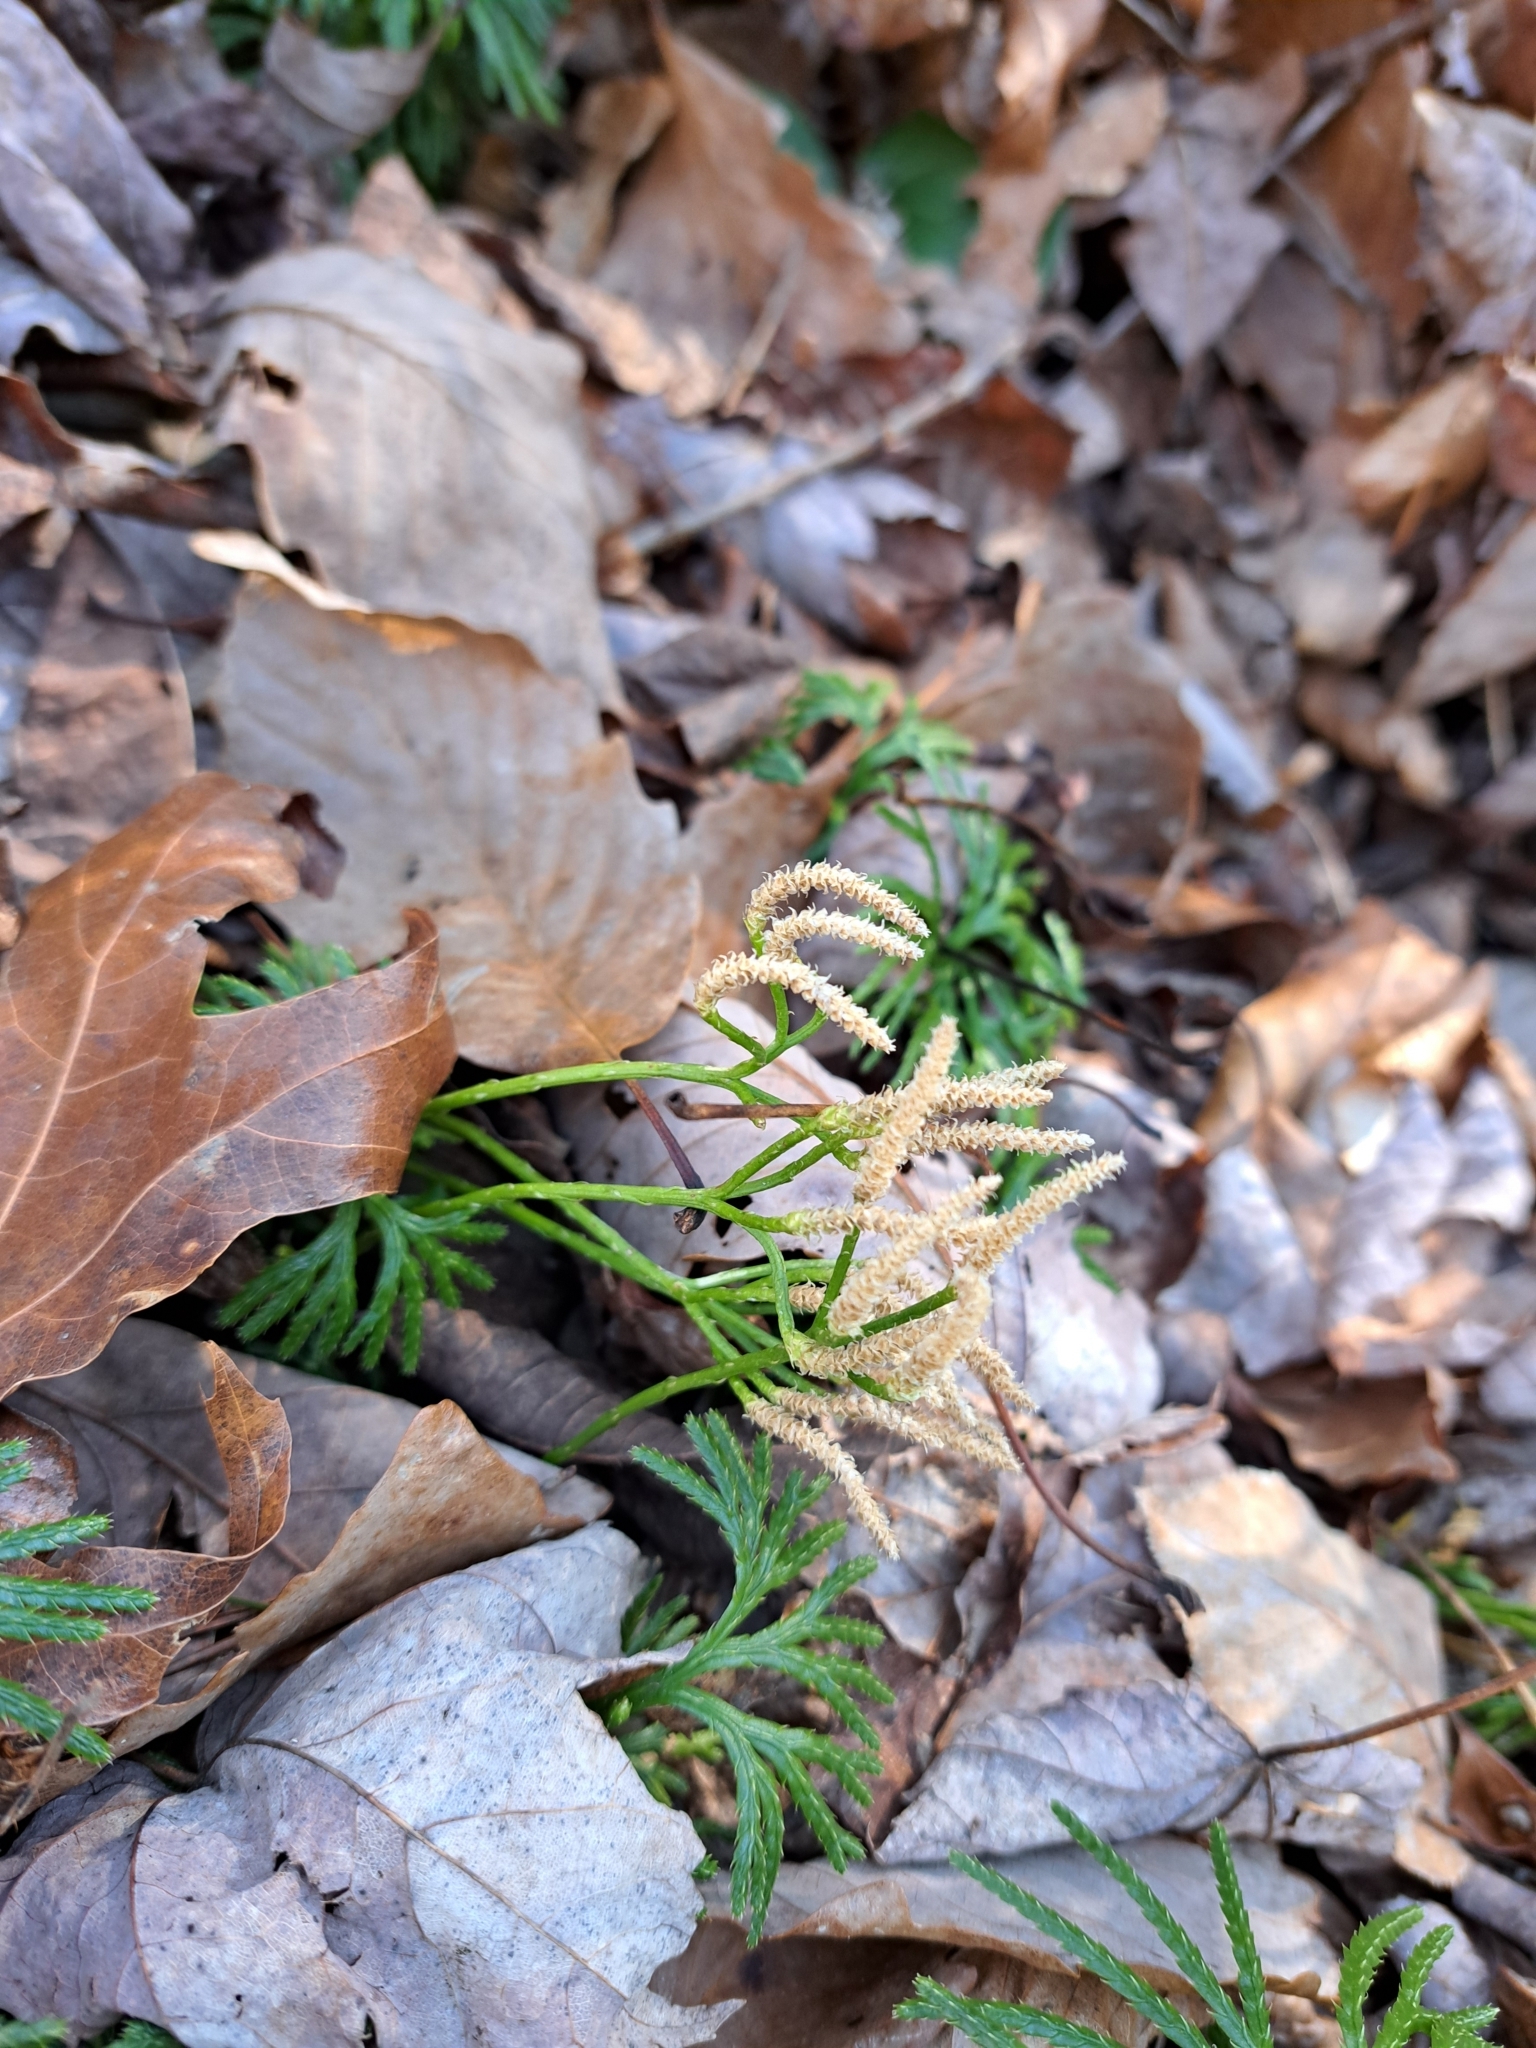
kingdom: Plantae
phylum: Tracheophyta
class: Lycopodiopsida
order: Lycopodiales
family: Lycopodiaceae
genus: Diphasiastrum
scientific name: Diphasiastrum digitatum
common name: Southern running-pine
